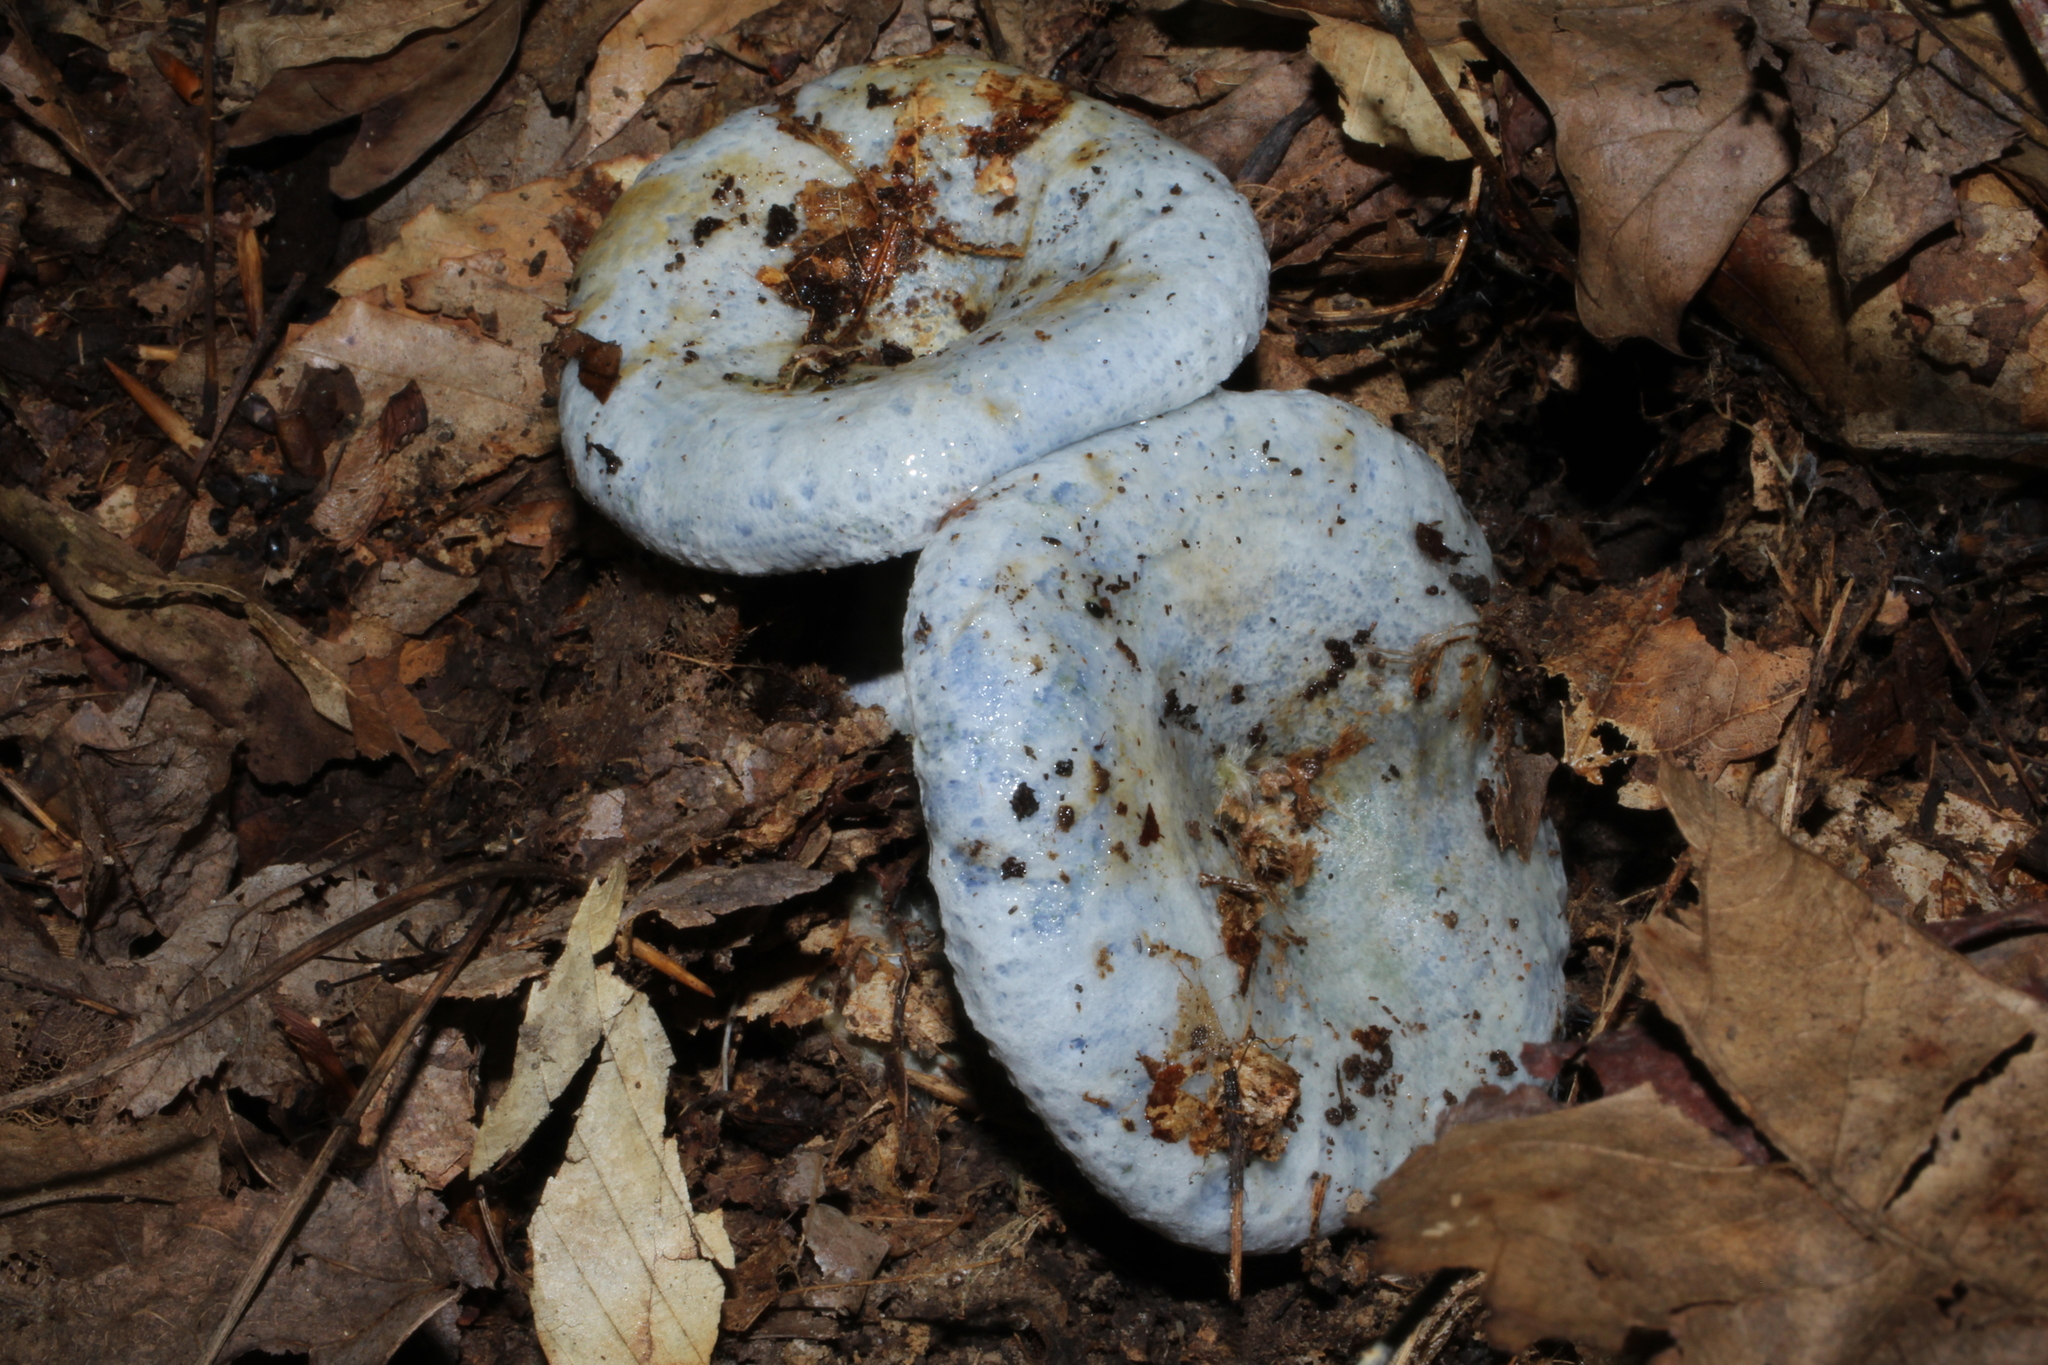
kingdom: Fungi
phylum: Basidiomycota
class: Agaricomycetes
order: Russulales
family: Russulaceae
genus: Lactarius
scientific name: Lactarius indigo
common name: Indigo milk cap
